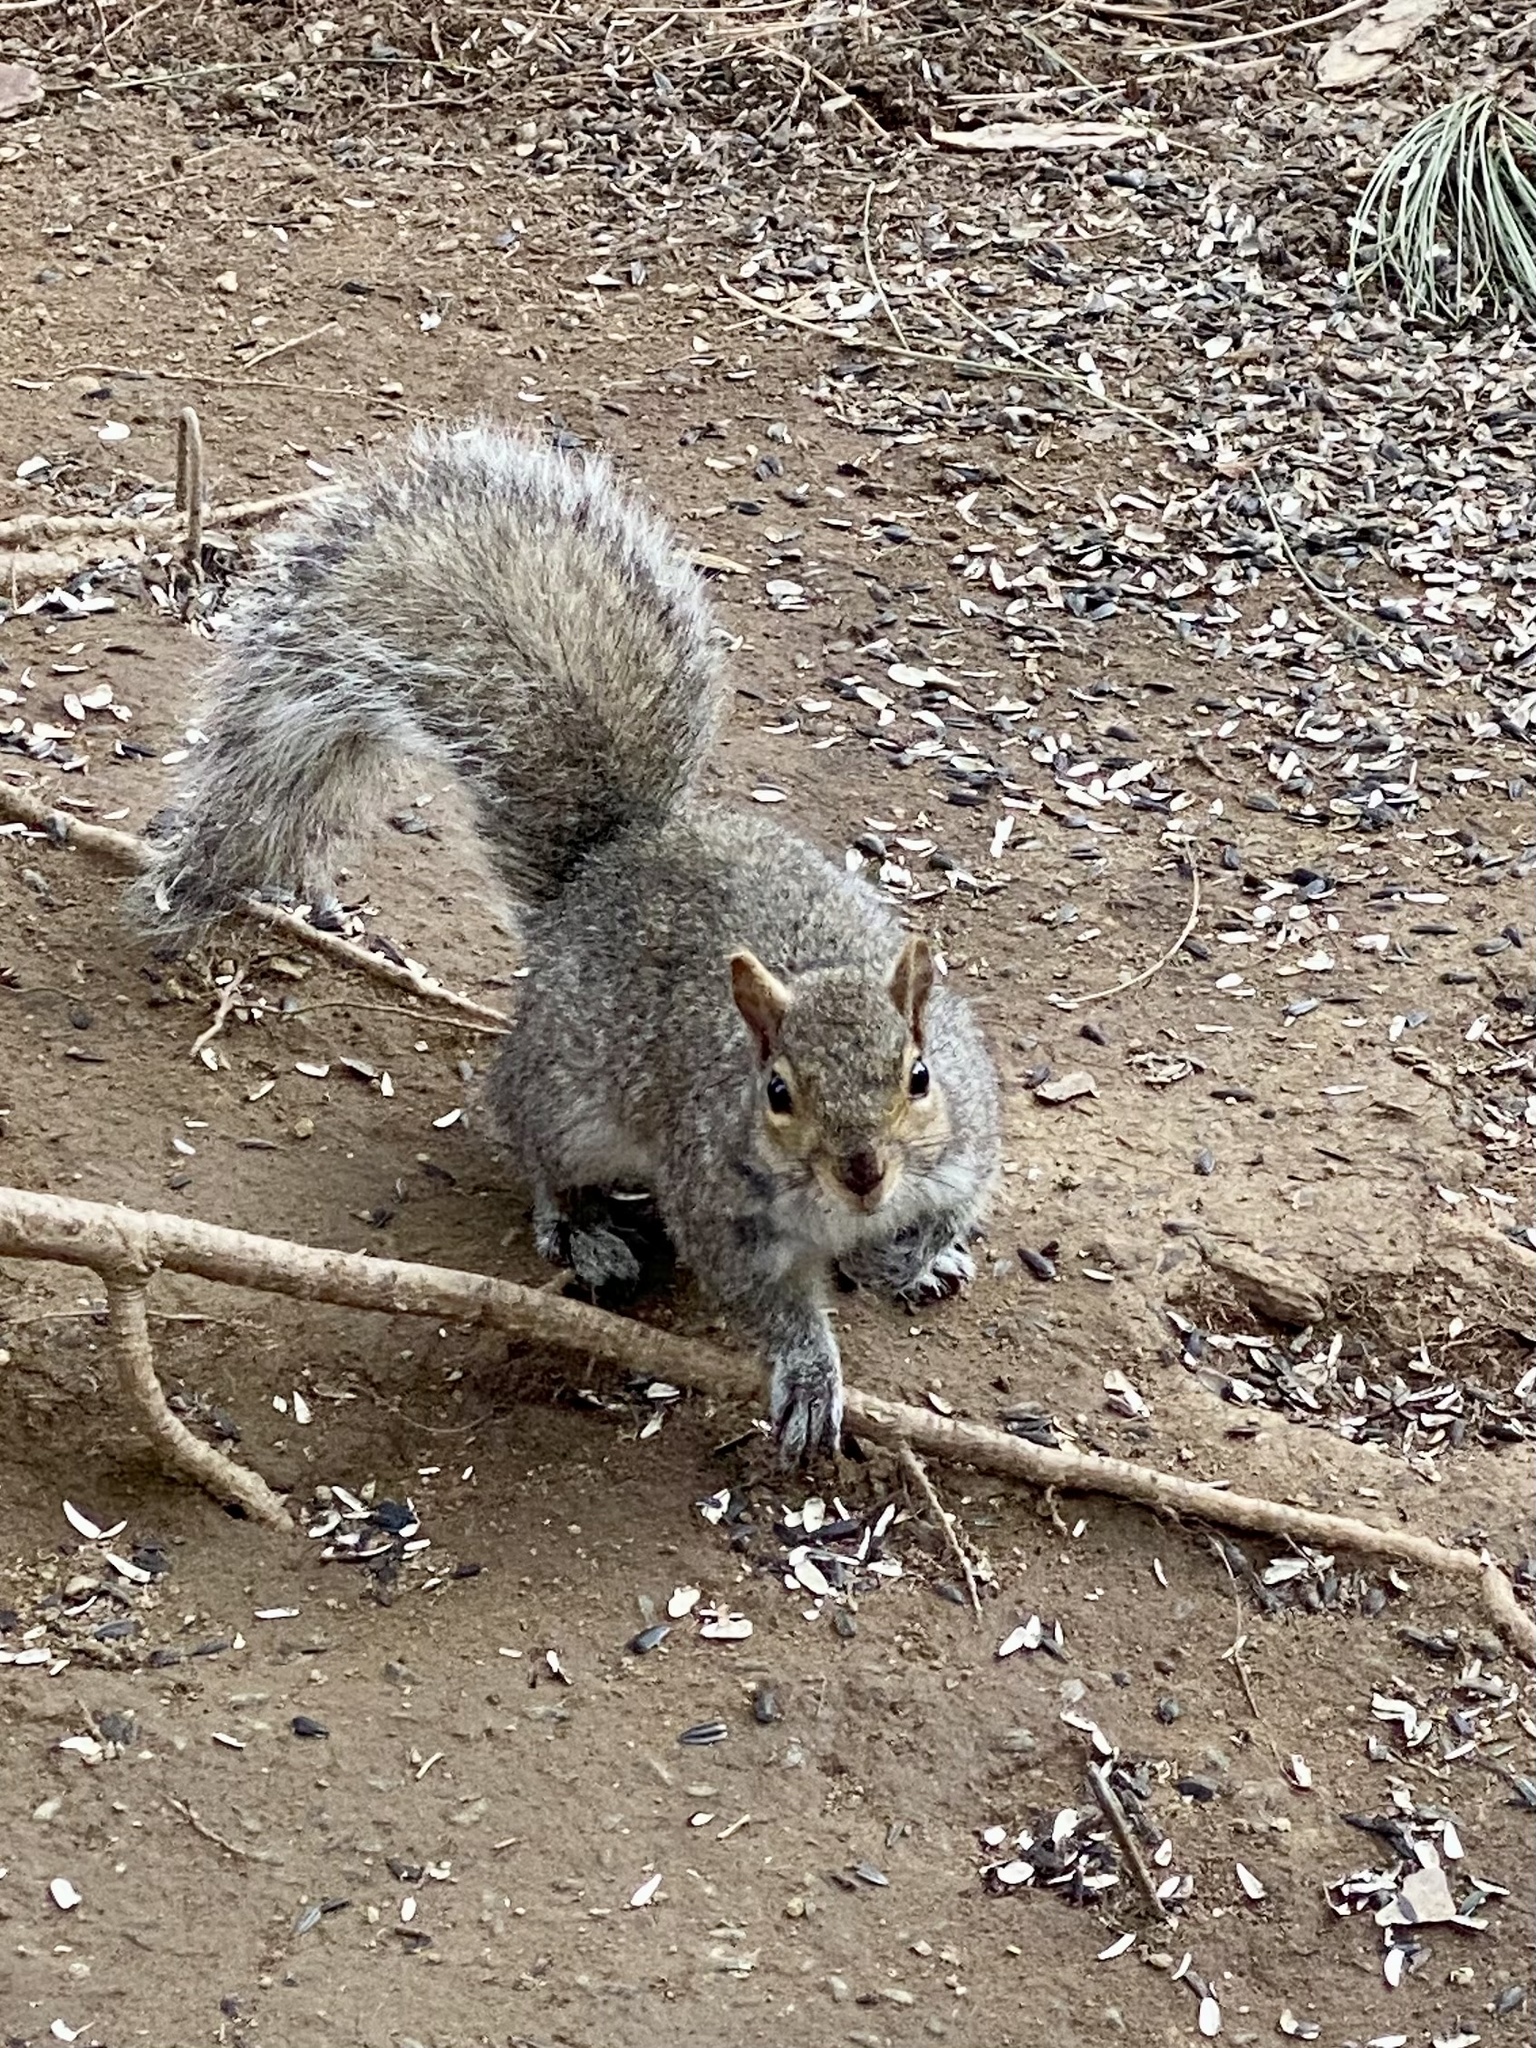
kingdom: Animalia
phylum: Chordata
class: Mammalia
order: Rodentia
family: Sciuridae
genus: Sciurus
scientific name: Sciurus carolinensis
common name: Eastern gray squirrel
